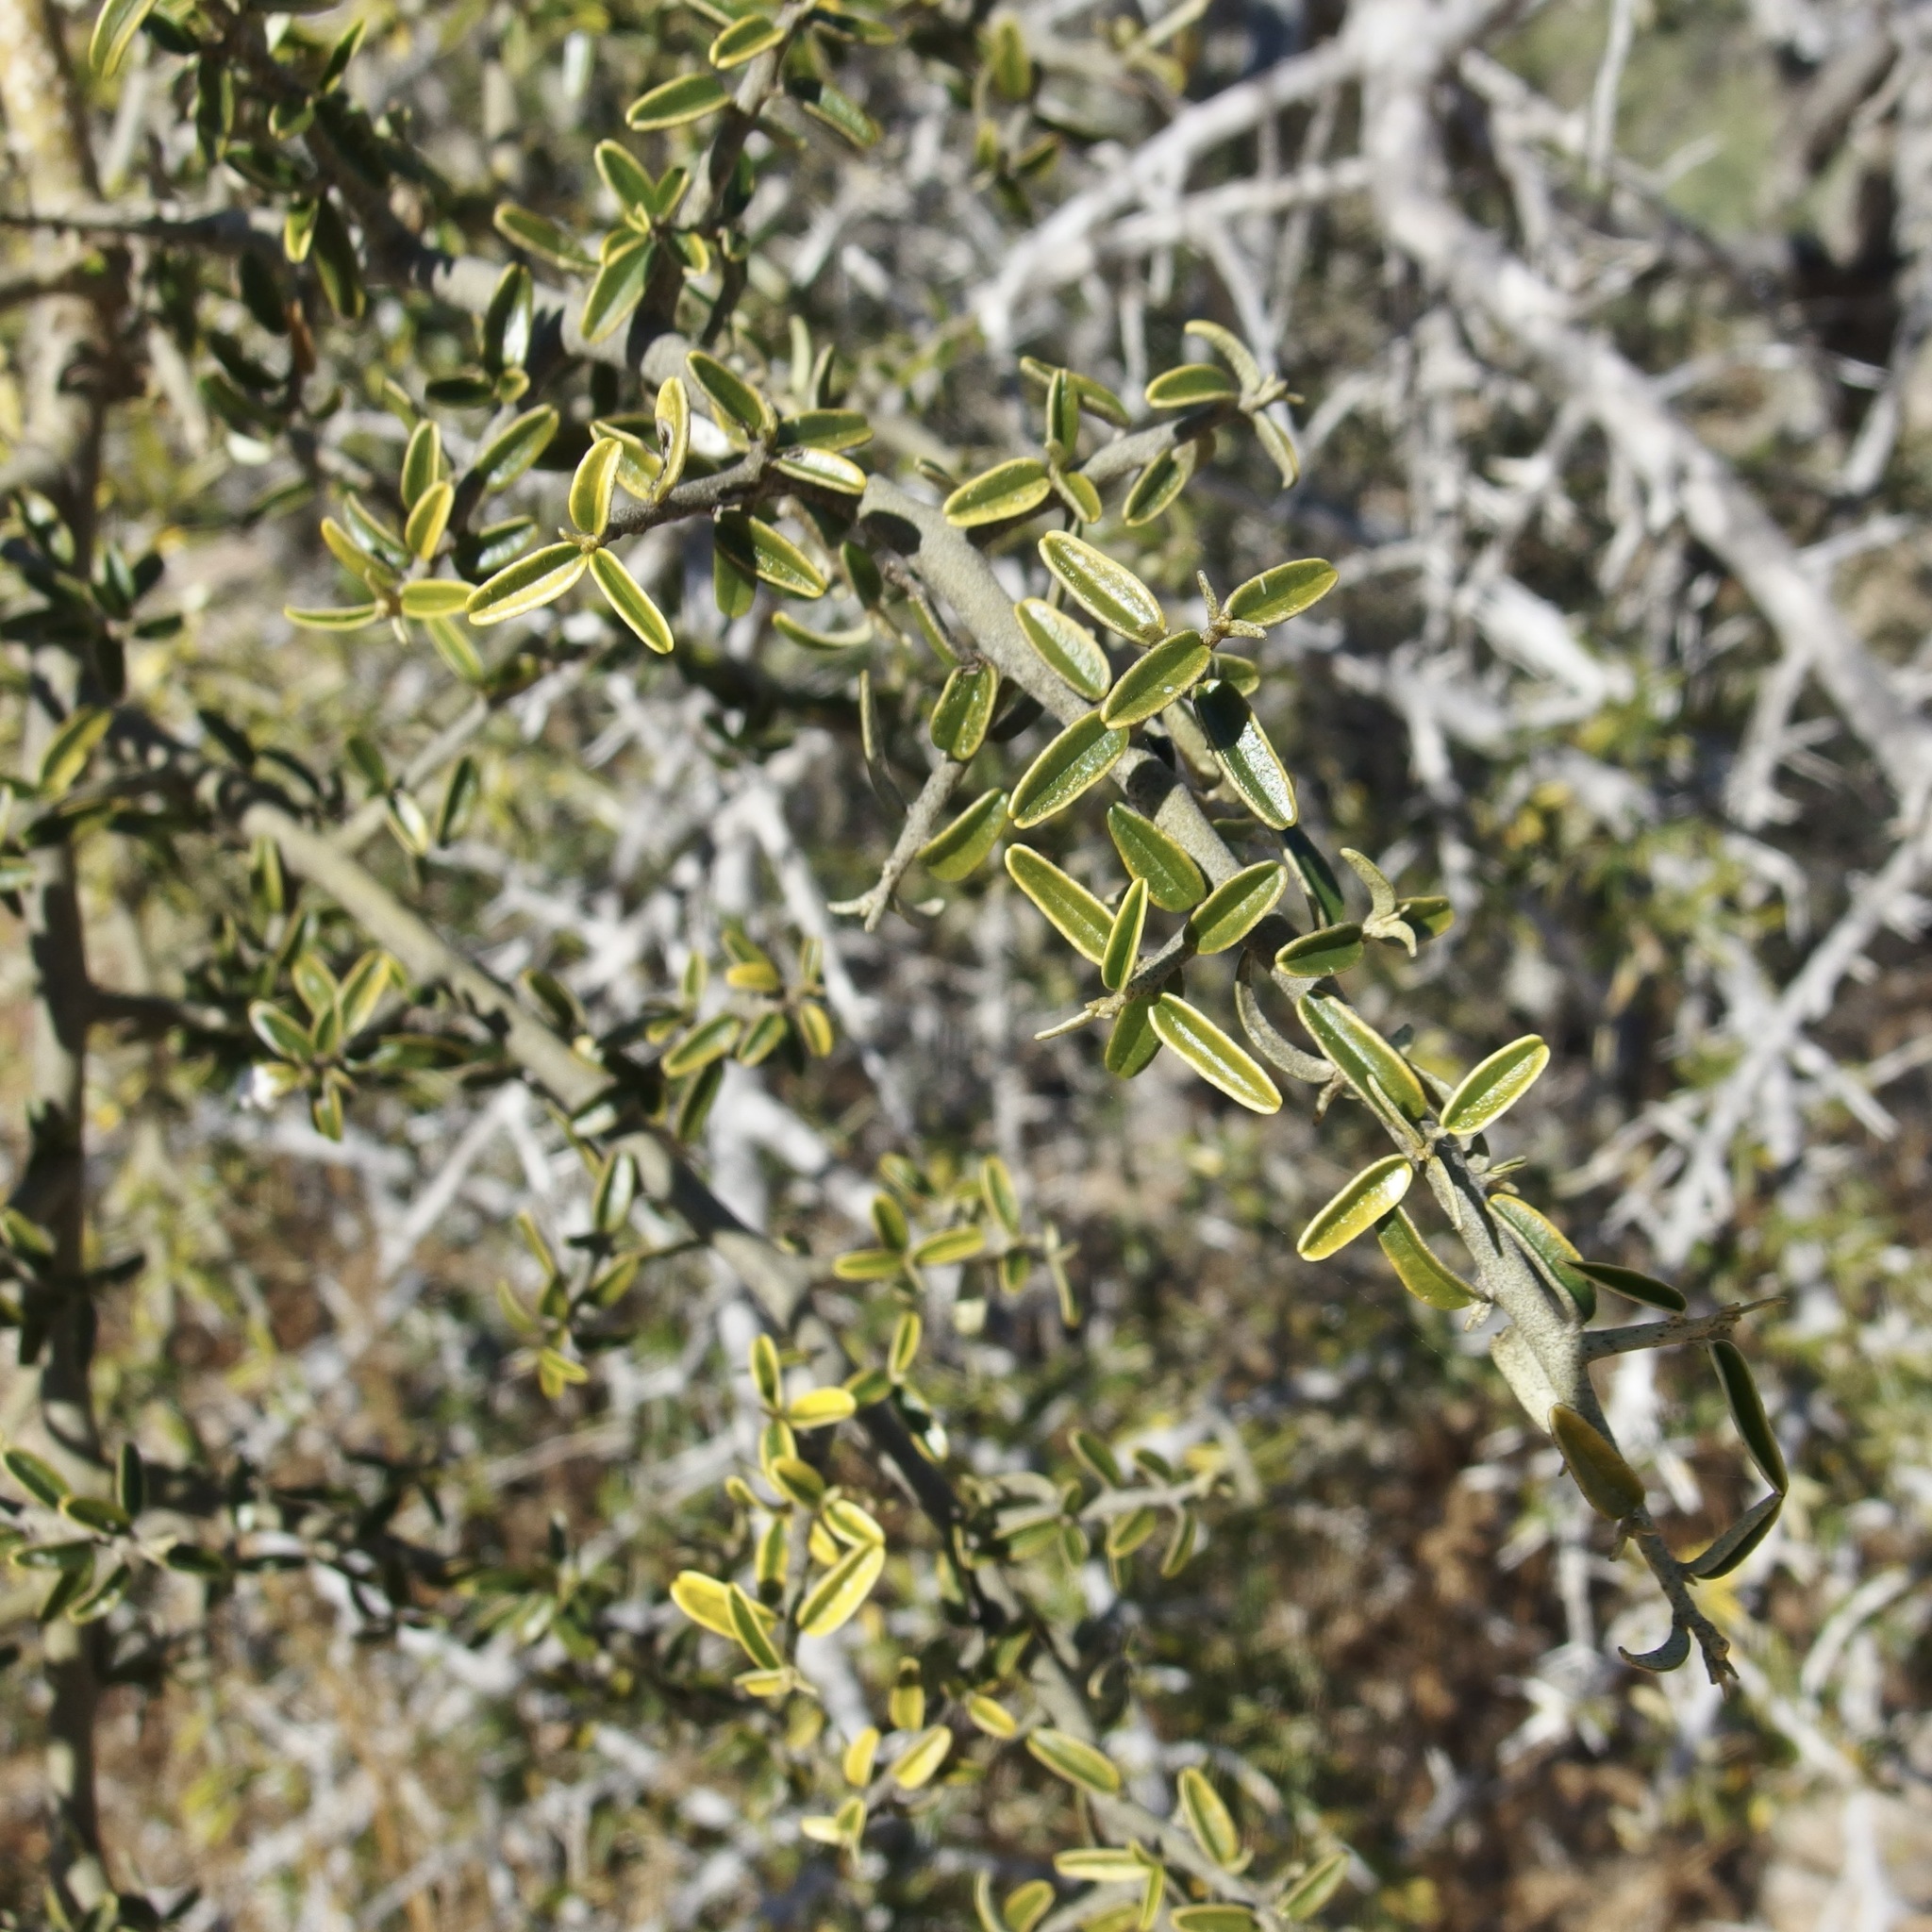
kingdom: Plantae
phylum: Tracheophyta
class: Magnoliopsida
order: Brassicales
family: Capparaceae
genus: Atamisquea
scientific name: Atamisquea emarginata
